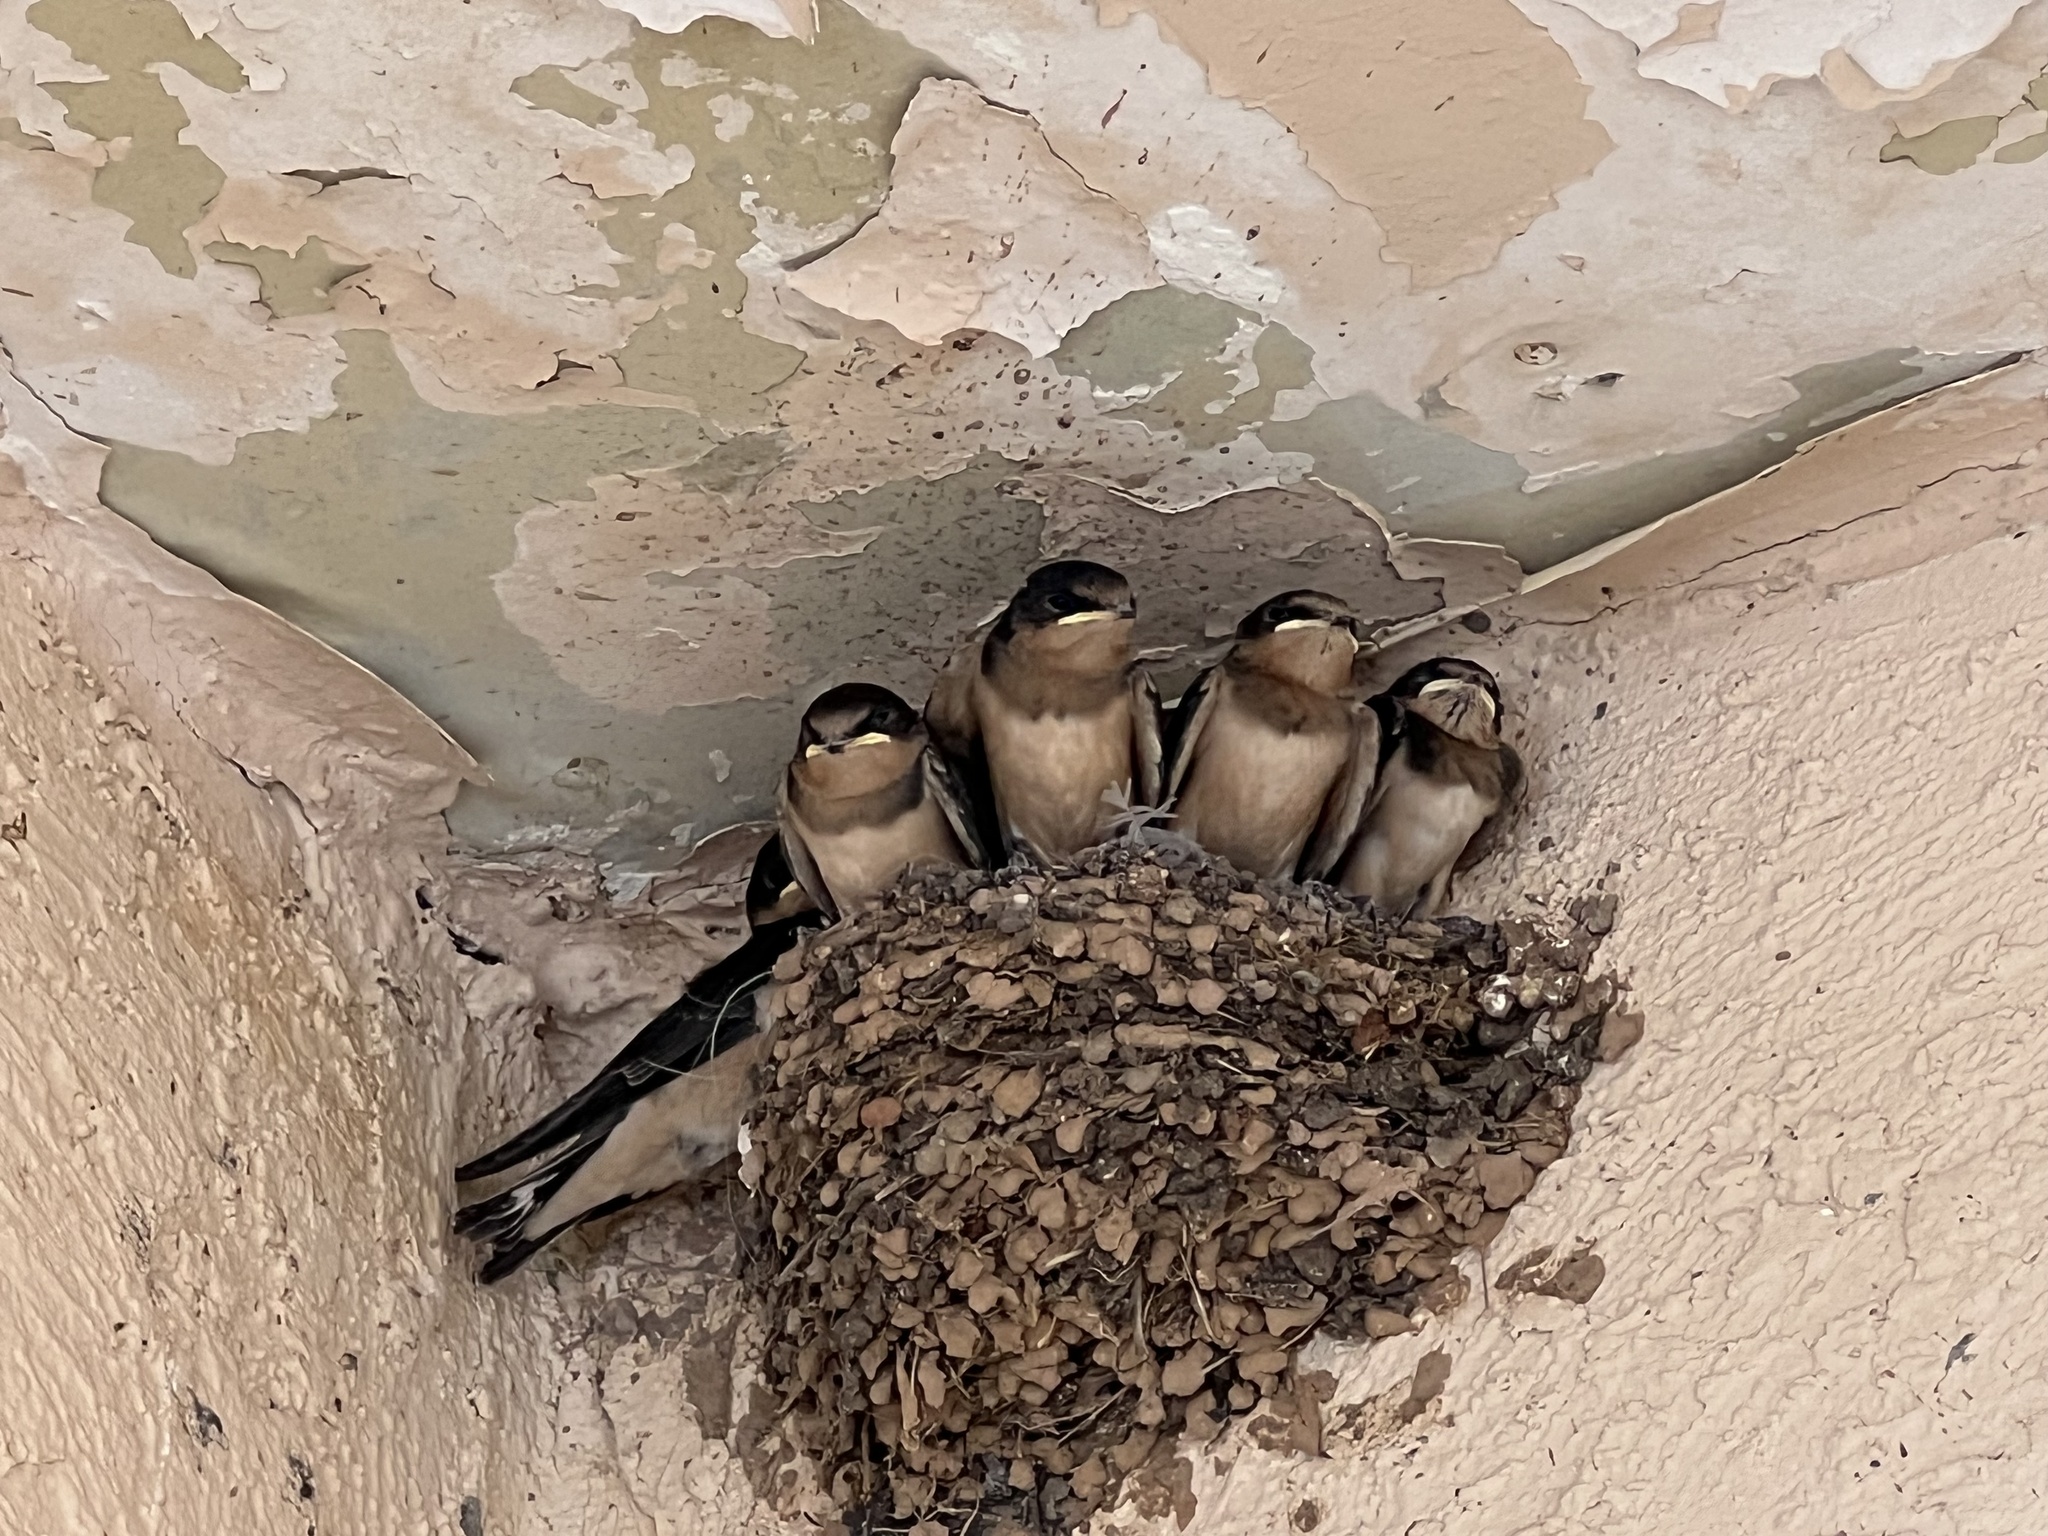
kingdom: Animalia
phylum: Chordata
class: Aves
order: Passeriformes
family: Hirundinidae
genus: Hirundo
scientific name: Hirundo rustica
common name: Barn swallow
